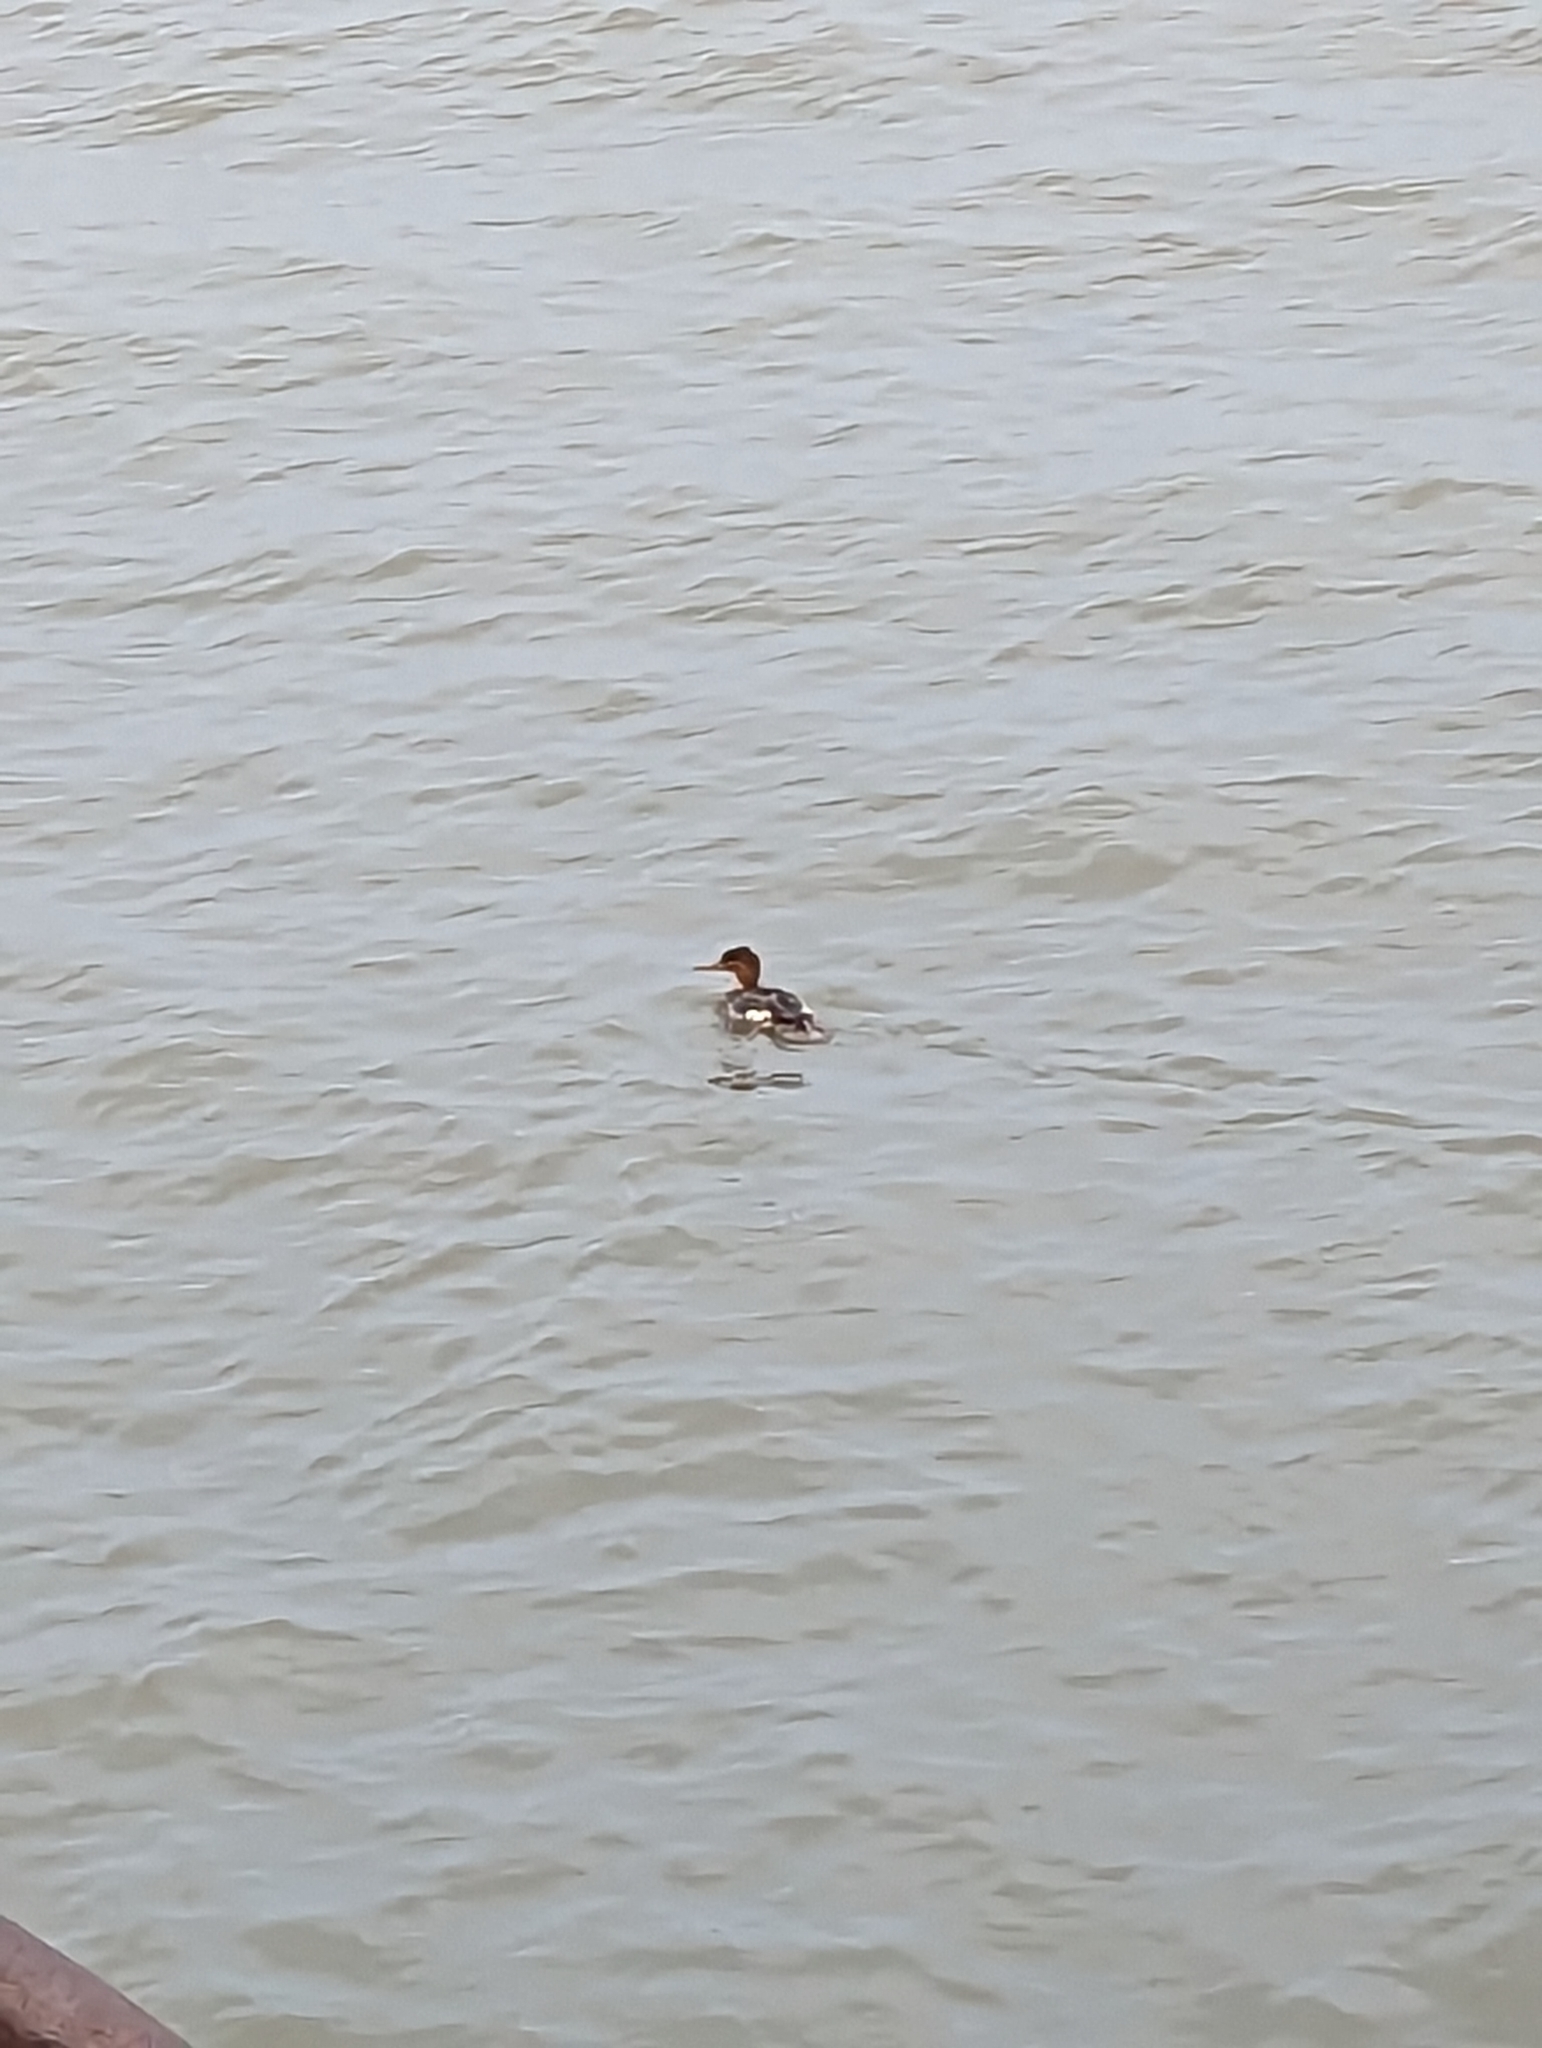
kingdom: Animalia
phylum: Chordata
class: Aves
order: Anseriformes
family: Anatidae
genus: Mergus
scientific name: Mergus serrator
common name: Red-breasted merganser
